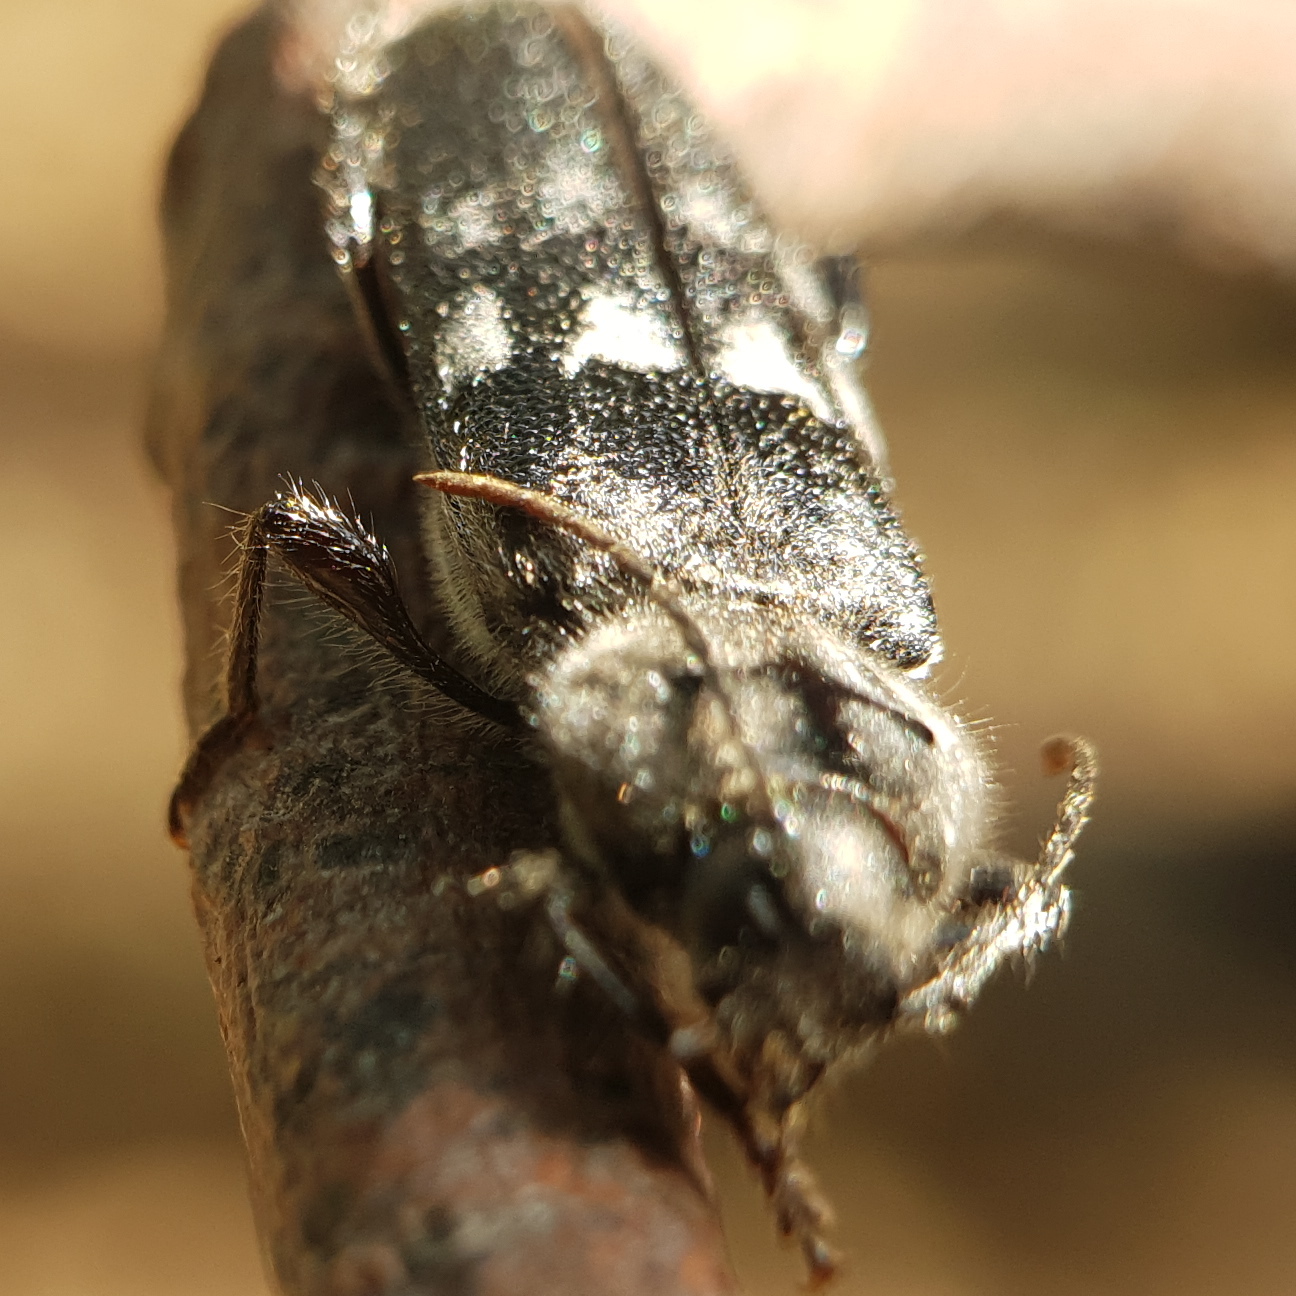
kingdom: Animalia
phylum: Arthropoda
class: Insecta
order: Coleoptera
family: Cerambycidae
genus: Hylotrupes
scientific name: Hylotrupes bajulus
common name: Old house borer
